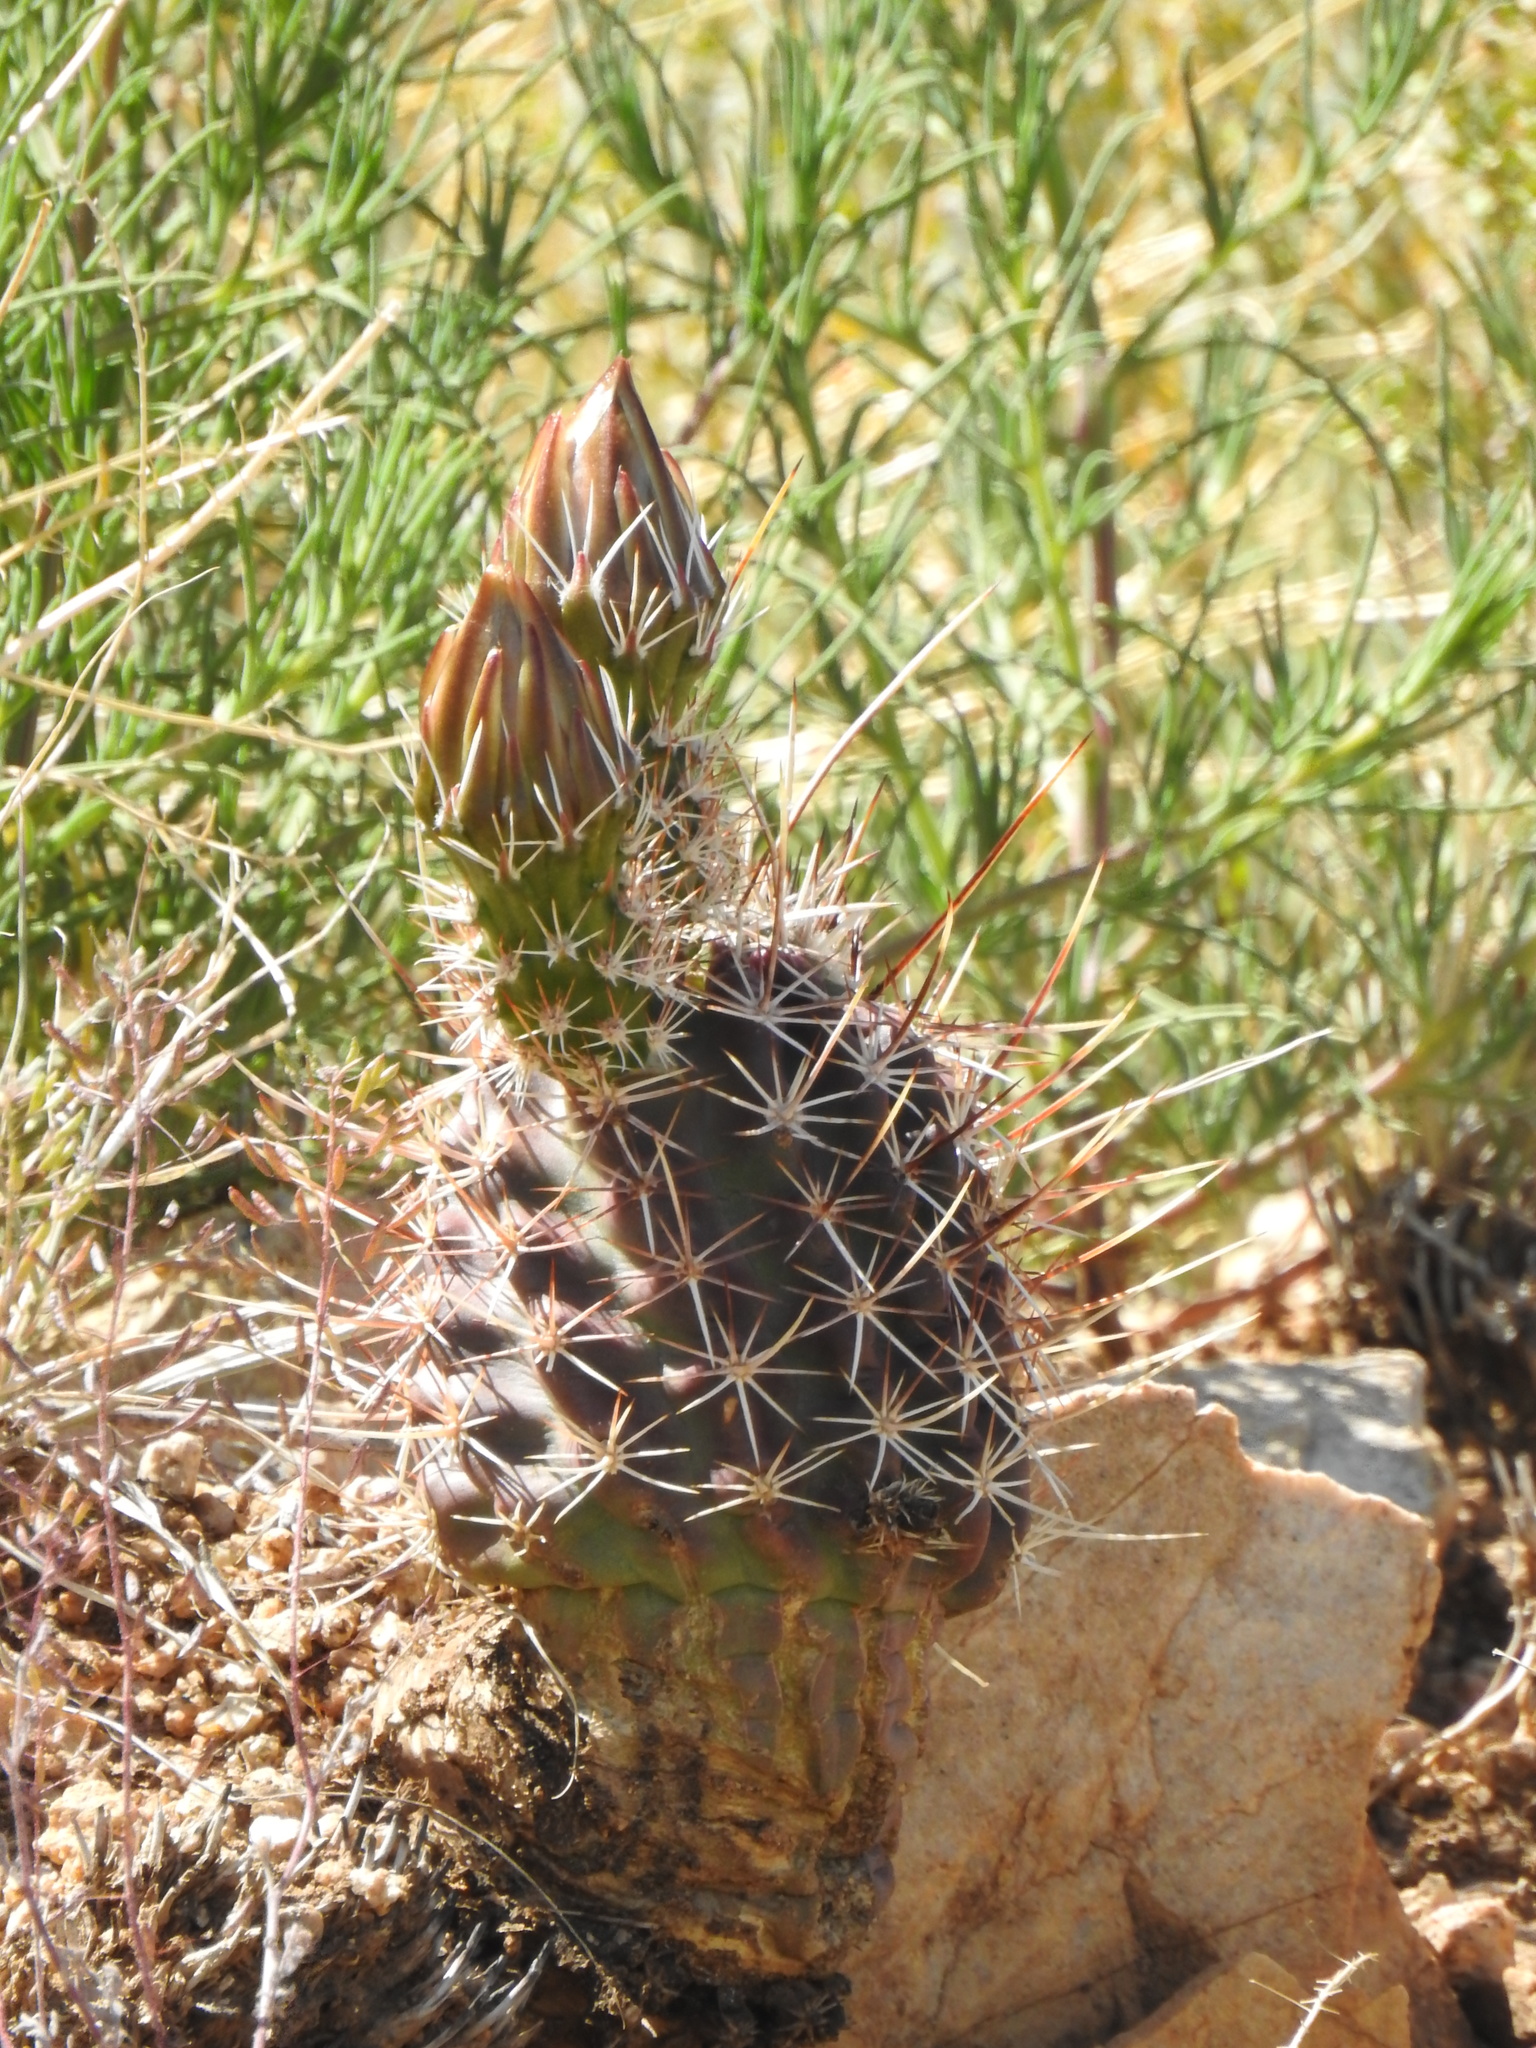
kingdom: Plantae
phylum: Tracheophyta
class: Magnoliopsida
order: Caryophyllales
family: Cactaceae
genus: Echinocereus
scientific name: Echinocereus fendleri
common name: Fendler's hedgehog cactus
